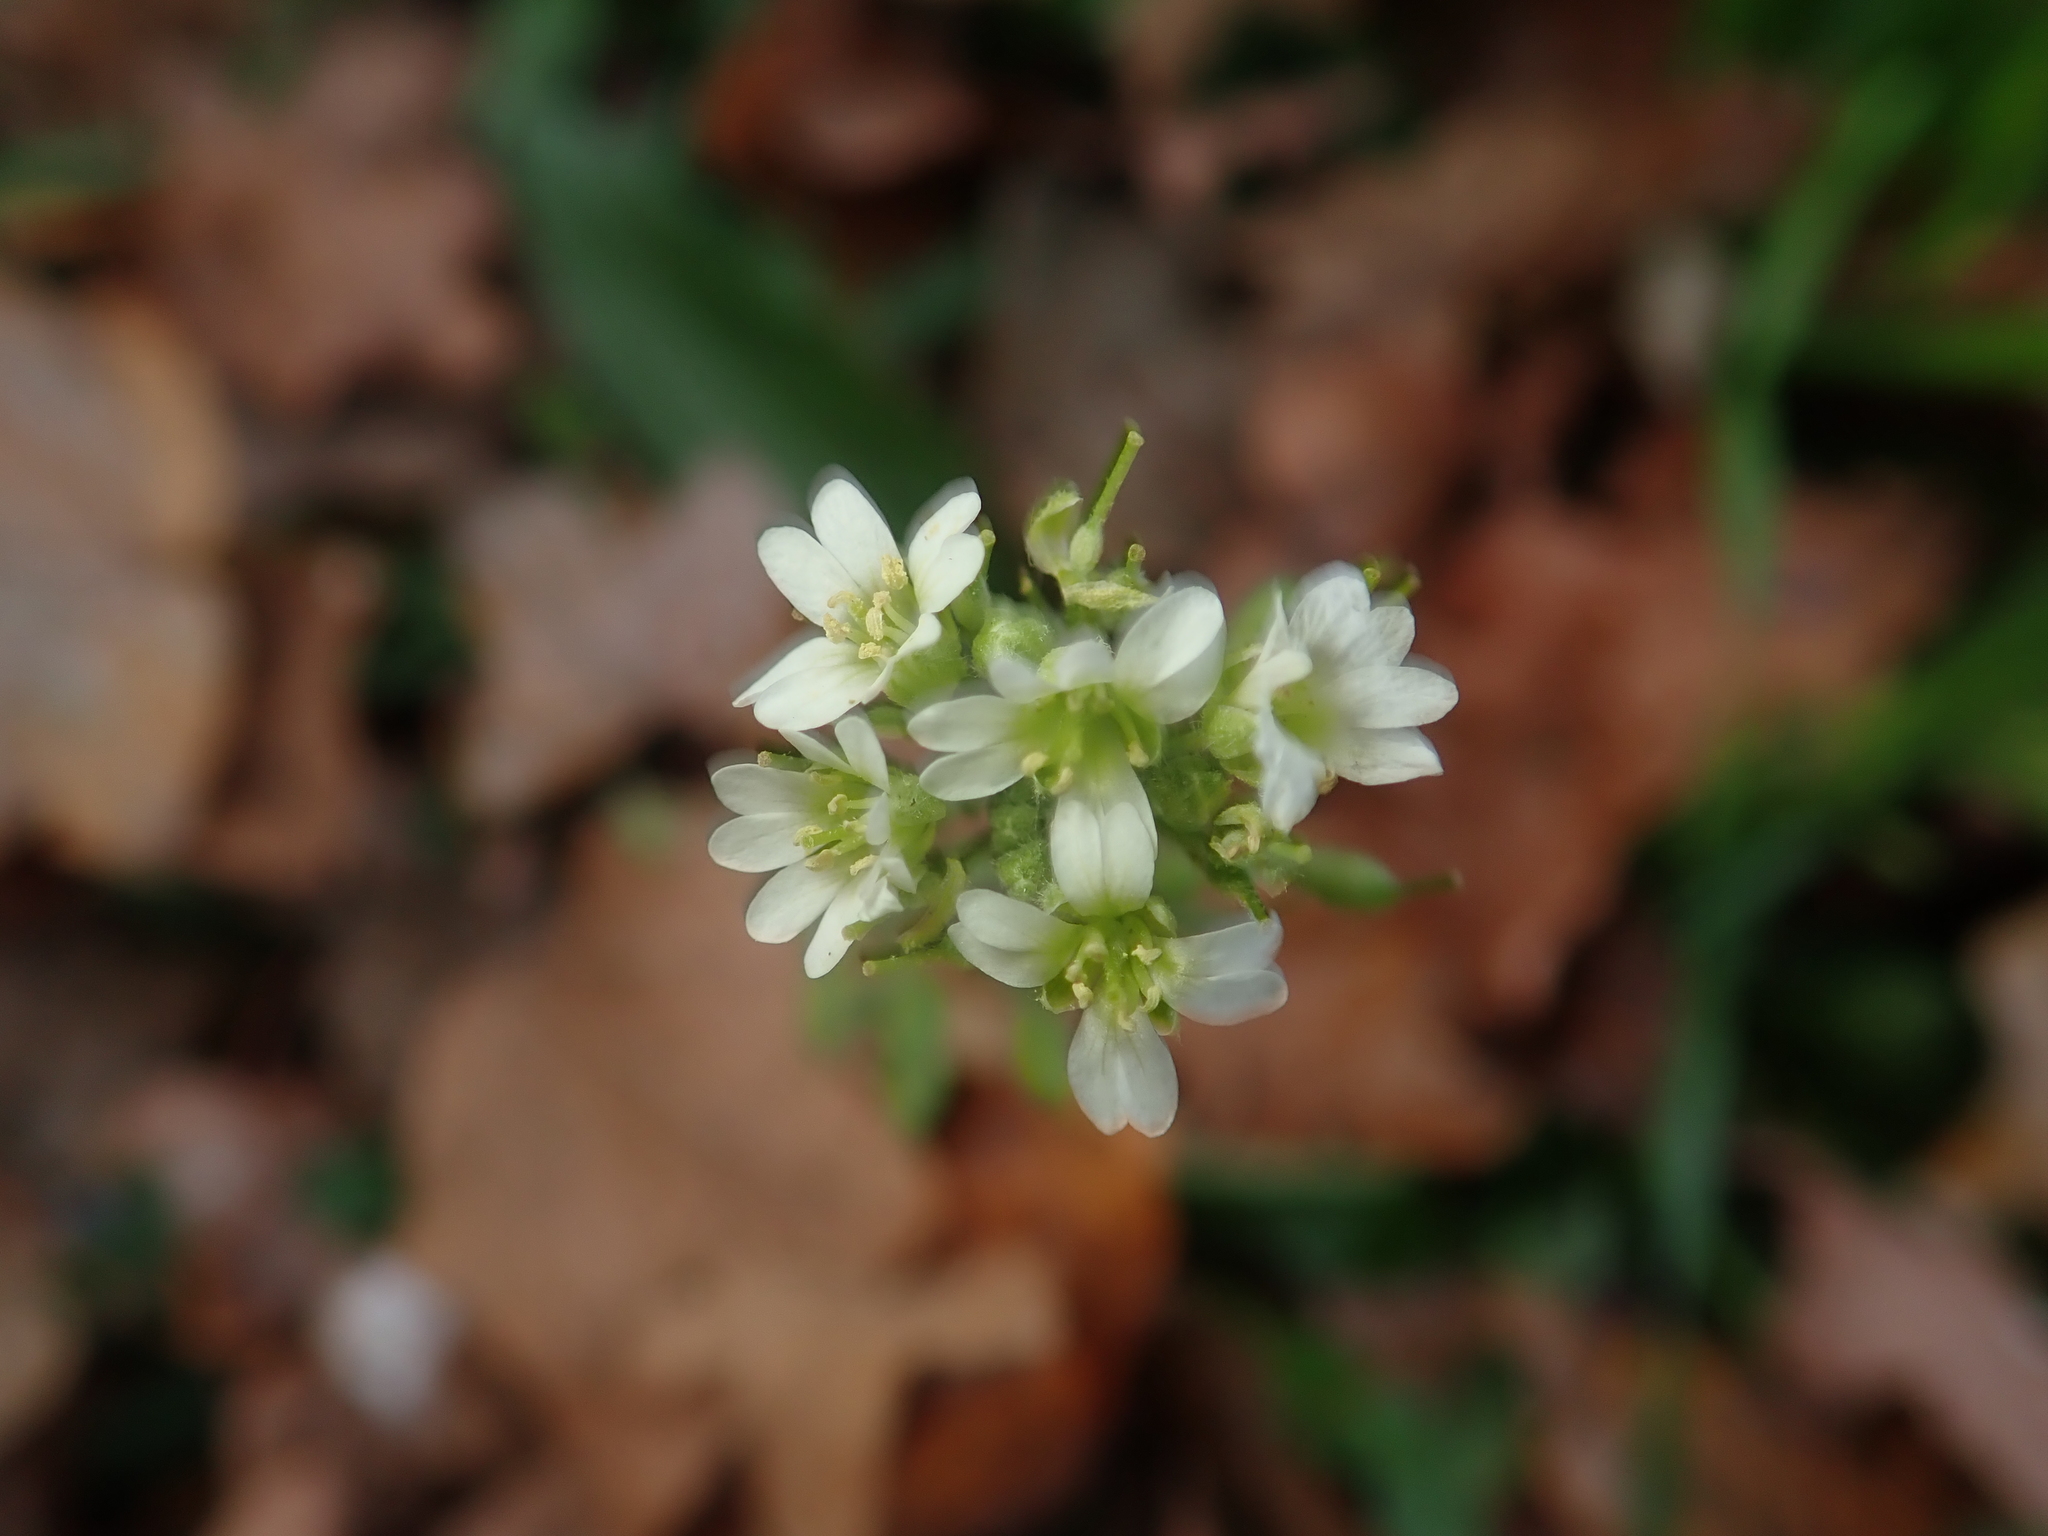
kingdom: Plantae
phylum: Tracheophyta
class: Magnoliopsida
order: Brassicales
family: Brassicaceae
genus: Berteroa
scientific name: Berteroa incana
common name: Hoary alison
